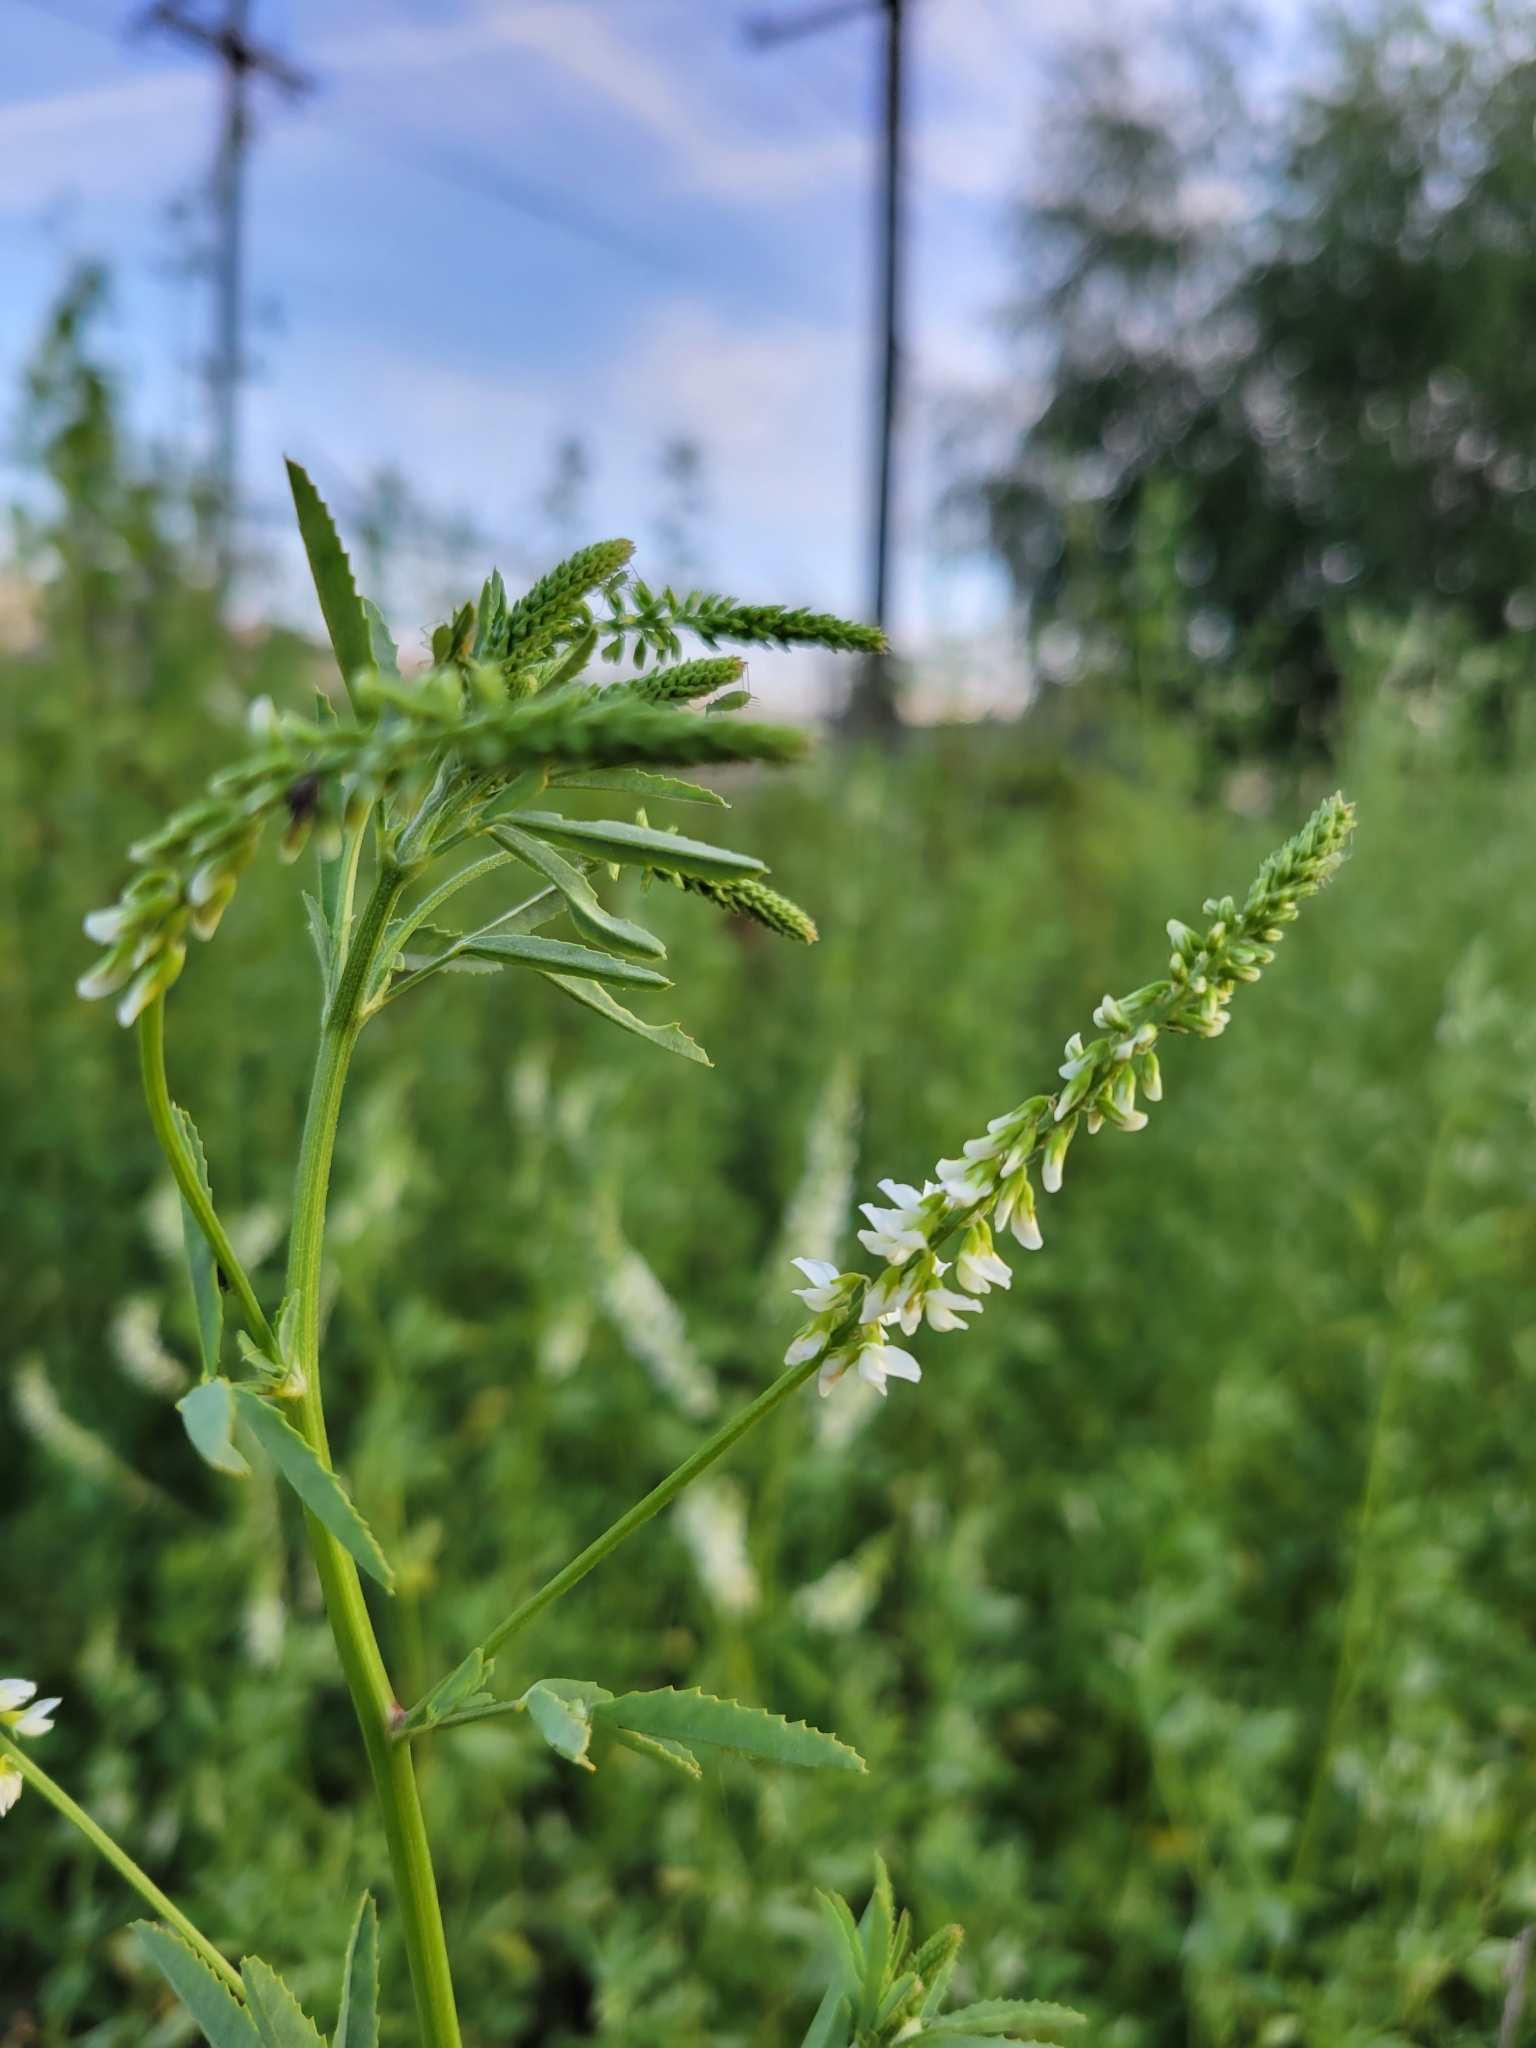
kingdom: Plantae
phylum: Tracheophyta
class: Magnoliopsida
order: Fabales
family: Fabaceae
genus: Melilotus
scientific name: Melilotus albus
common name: White melilot
